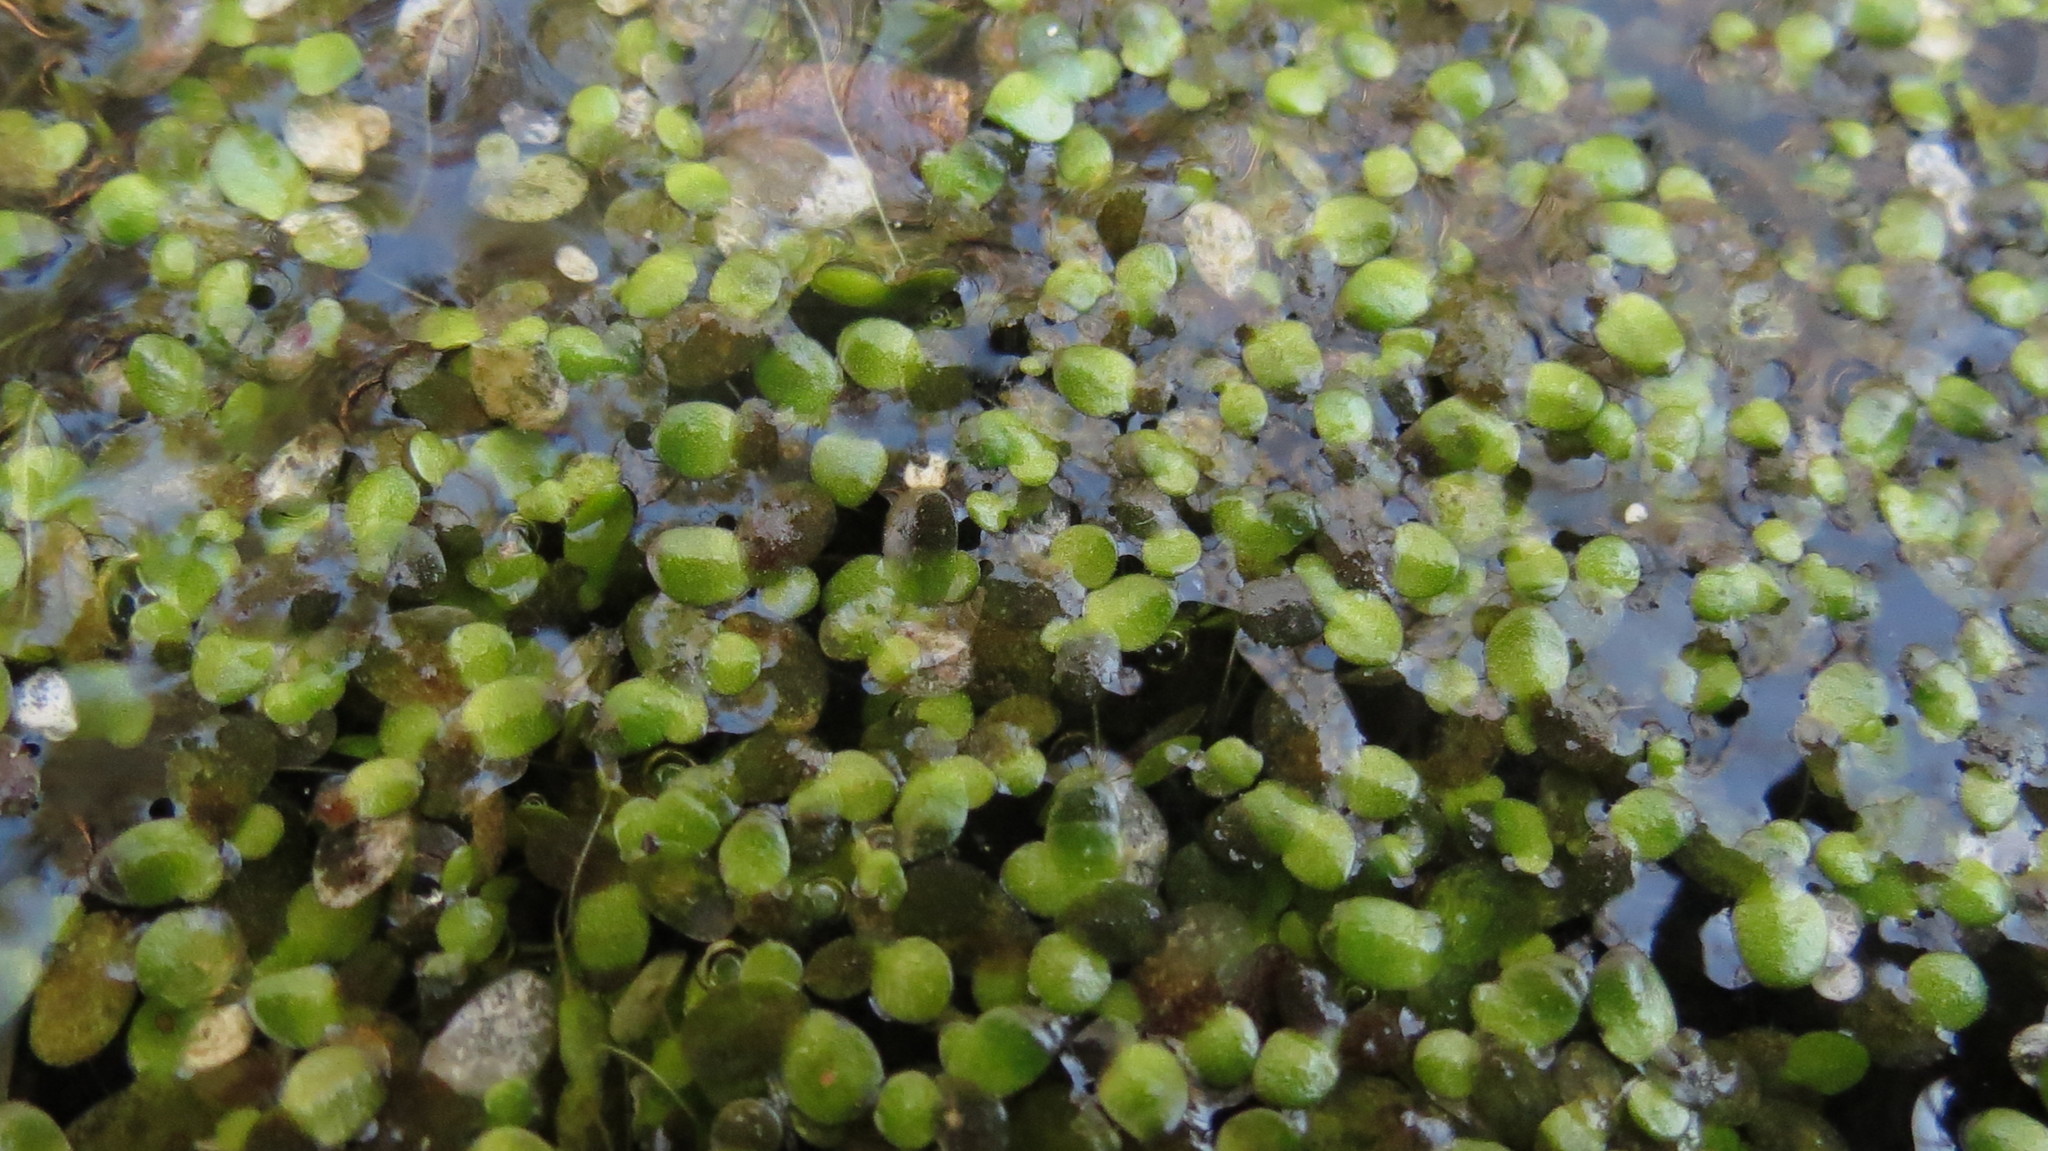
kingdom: Plantae
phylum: Tracheophyta
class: Liliopsida
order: Alismatales
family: Araceae
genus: Lemna
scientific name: Lemna minor
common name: Common duckweed
